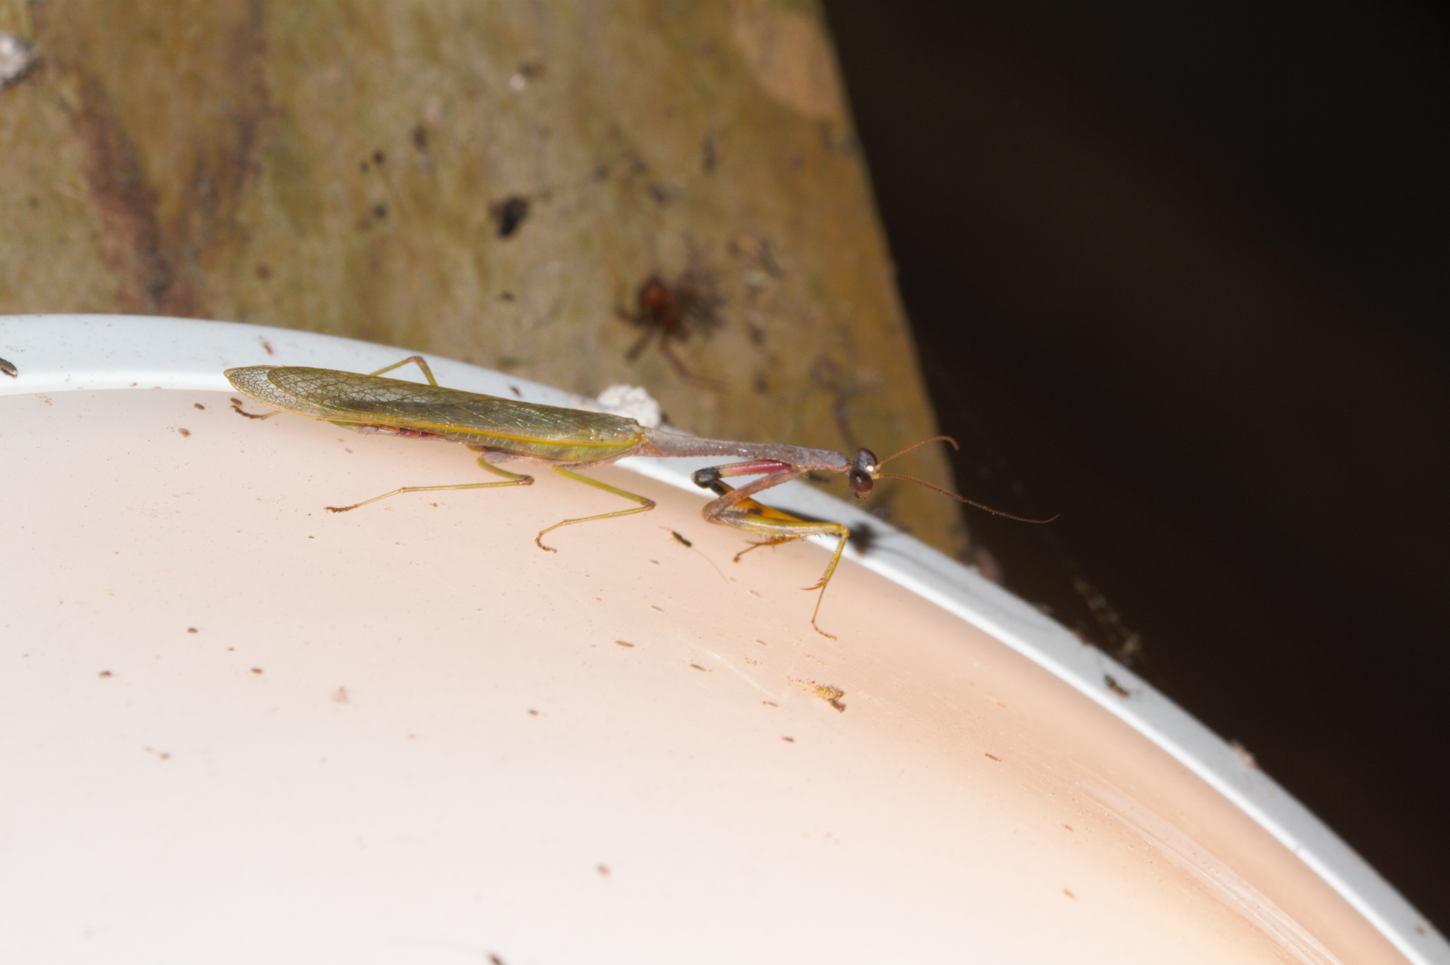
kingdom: Animalia
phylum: Arthropoda
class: Insecta
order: Mantodea
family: Mantidae
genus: Parastagmatoptera
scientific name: Parastagmatoptera flavoguttata
